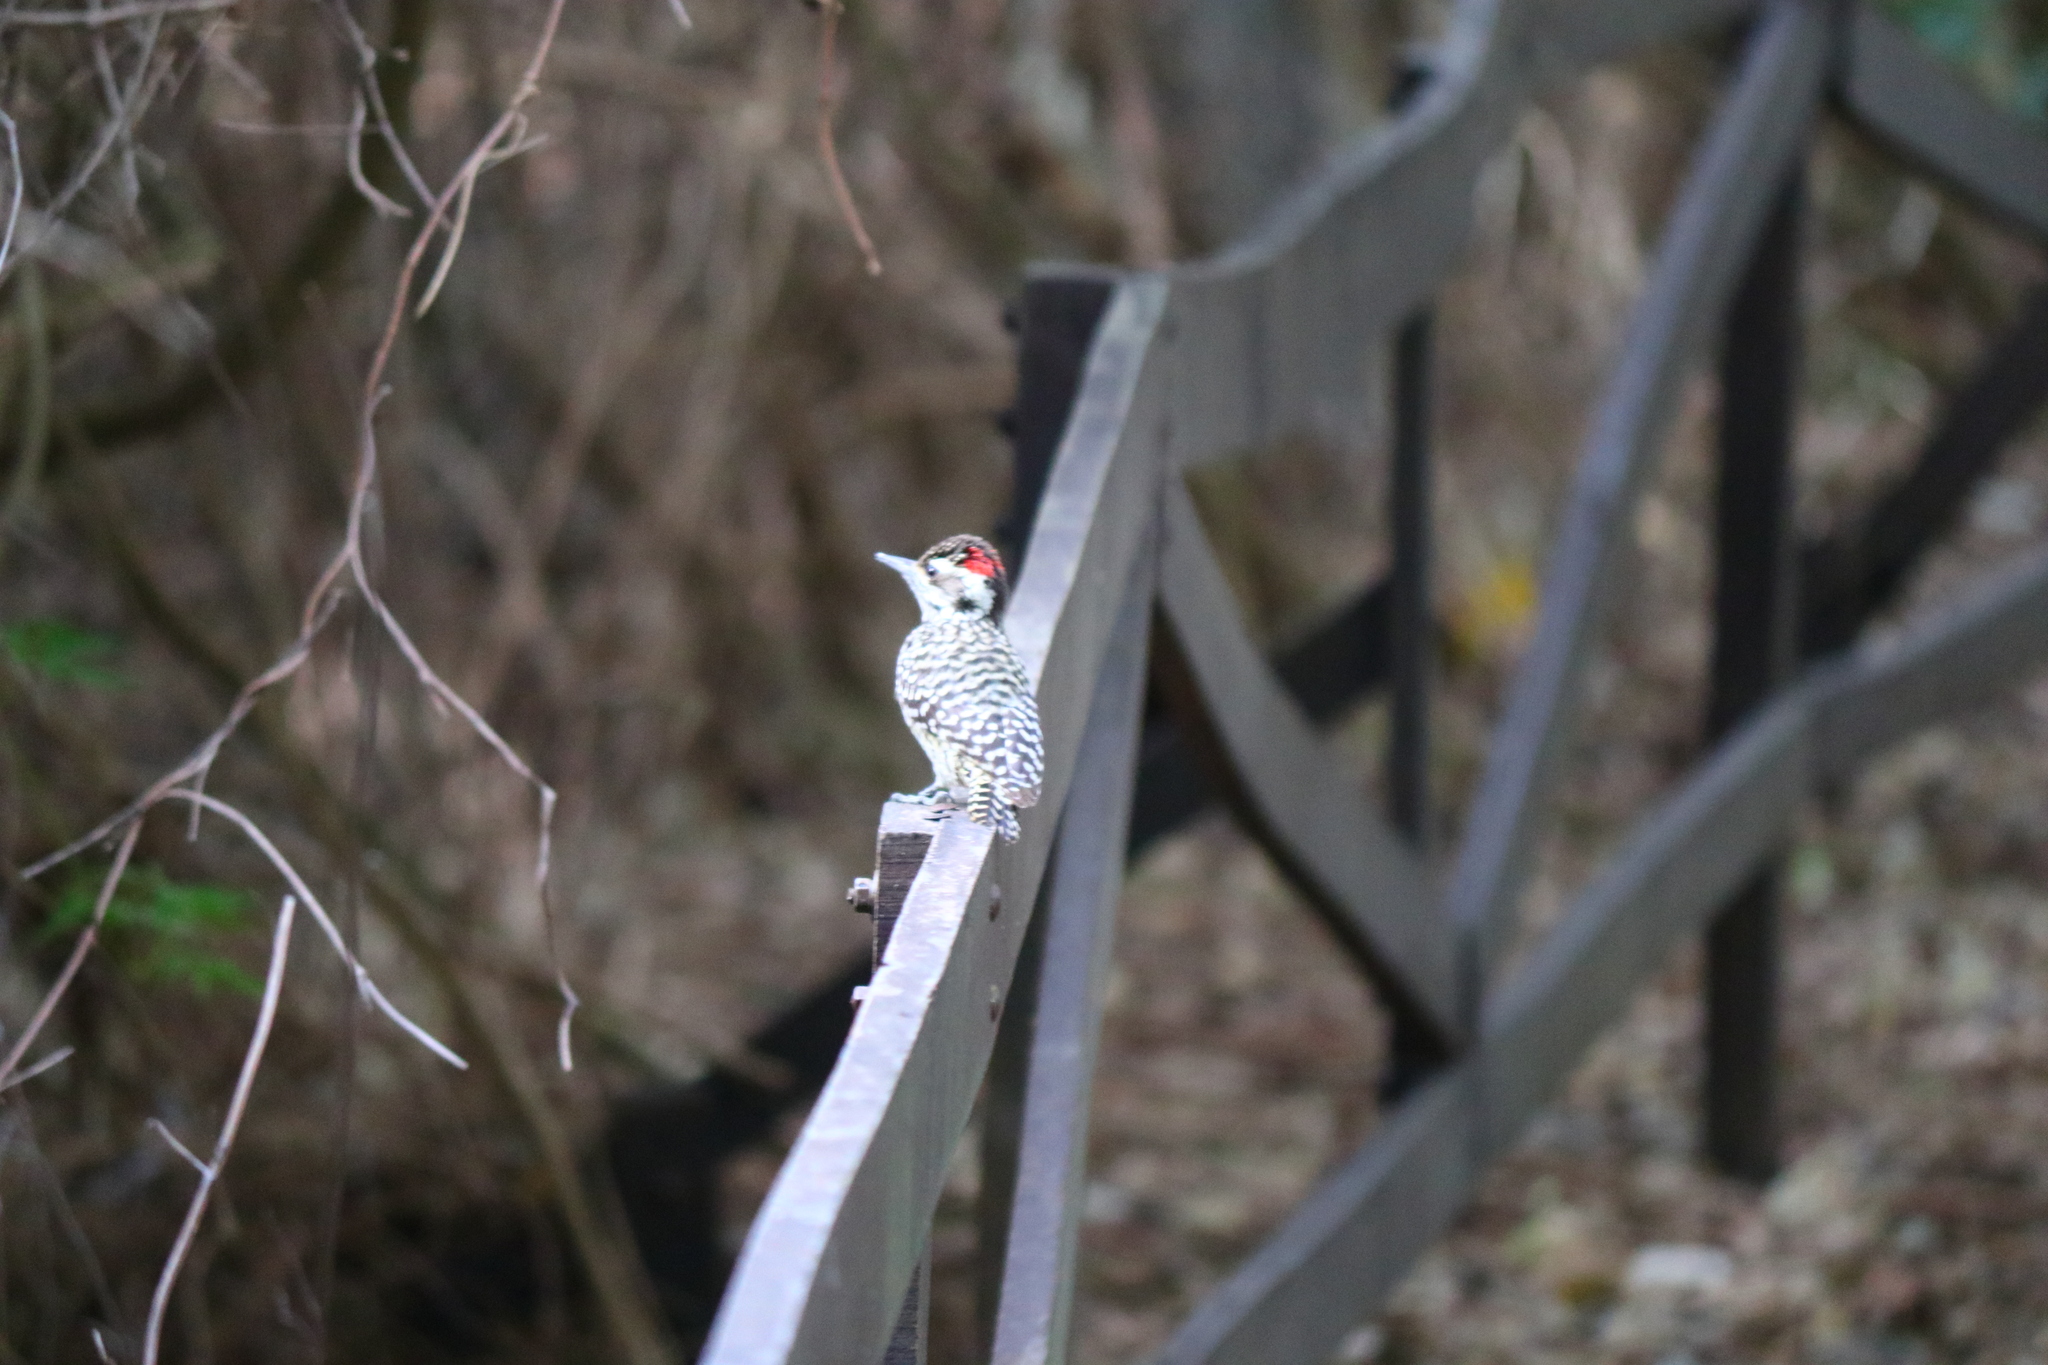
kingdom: Animalia
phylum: Chordata
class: Aves
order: Piciformes
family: Picidae
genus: Veniliornis
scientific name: Veniliornis mixtus
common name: Checkered woodpecker
